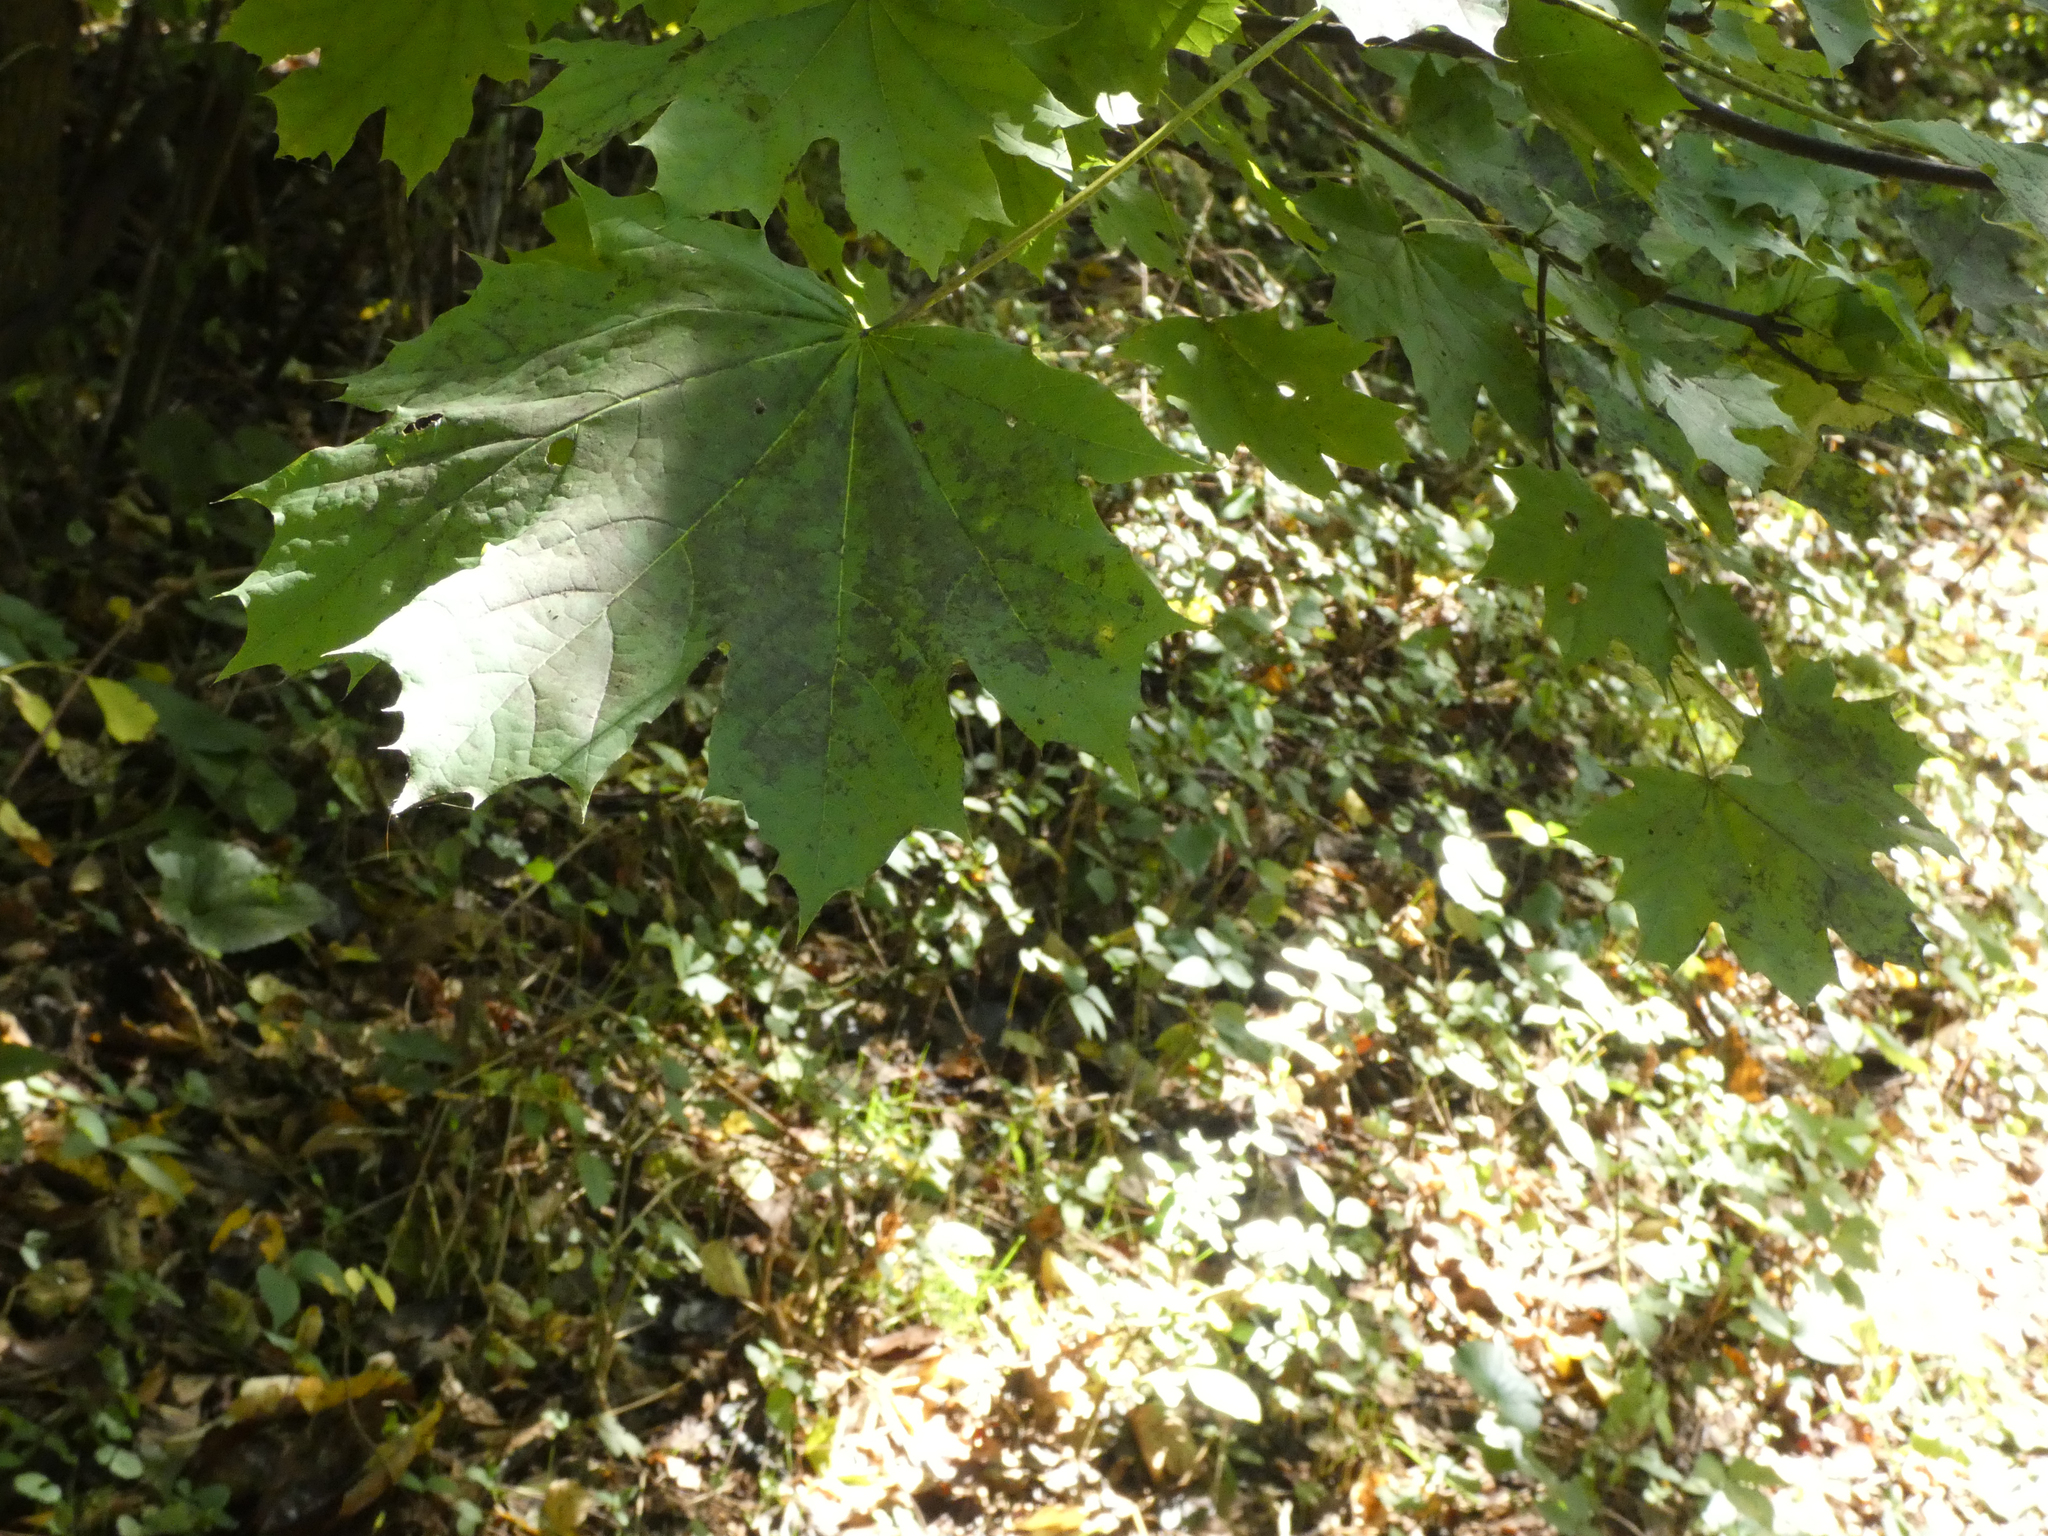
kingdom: Plantae
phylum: Tracheophyta
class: Magnoliopsida
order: Sapindales
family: Sapindaceae
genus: Acer
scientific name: Acer platanoides
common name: Norway maple
